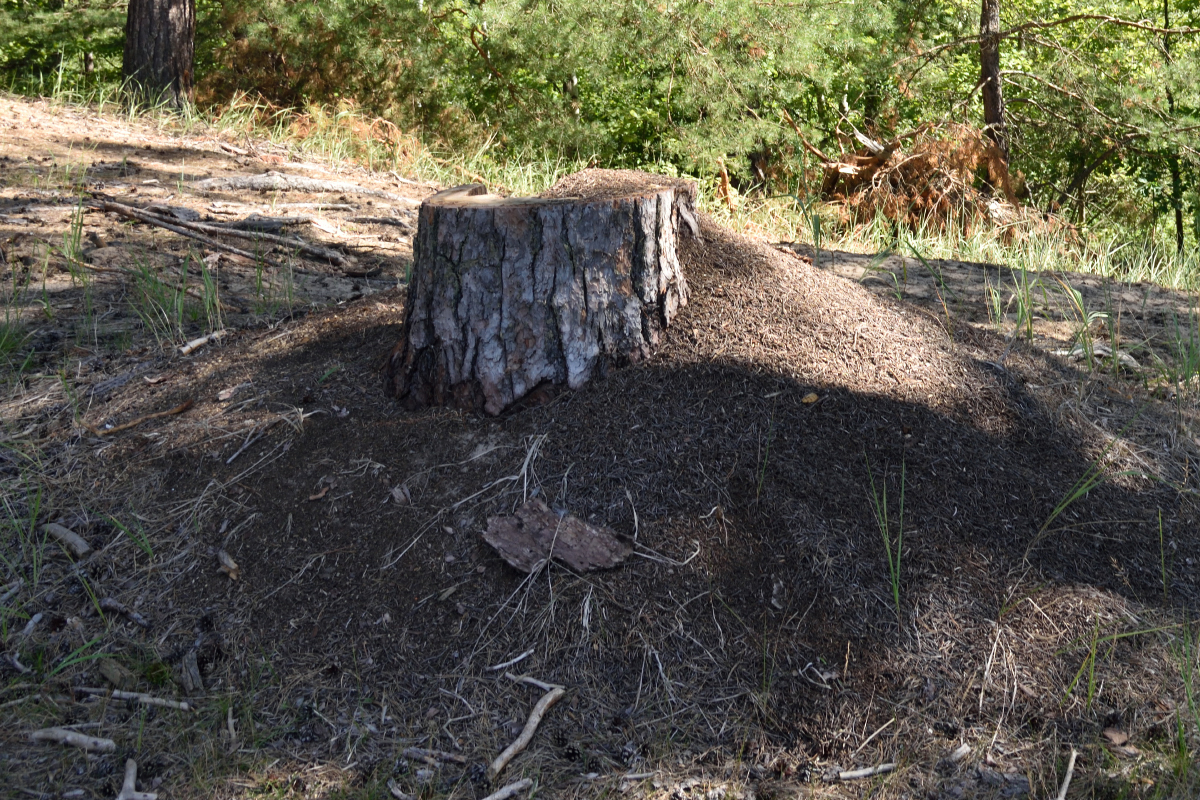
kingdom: Animalia
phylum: Arthropoda
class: Insecta
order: Hymenoptera
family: Formicidae
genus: Formica
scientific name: Formica
